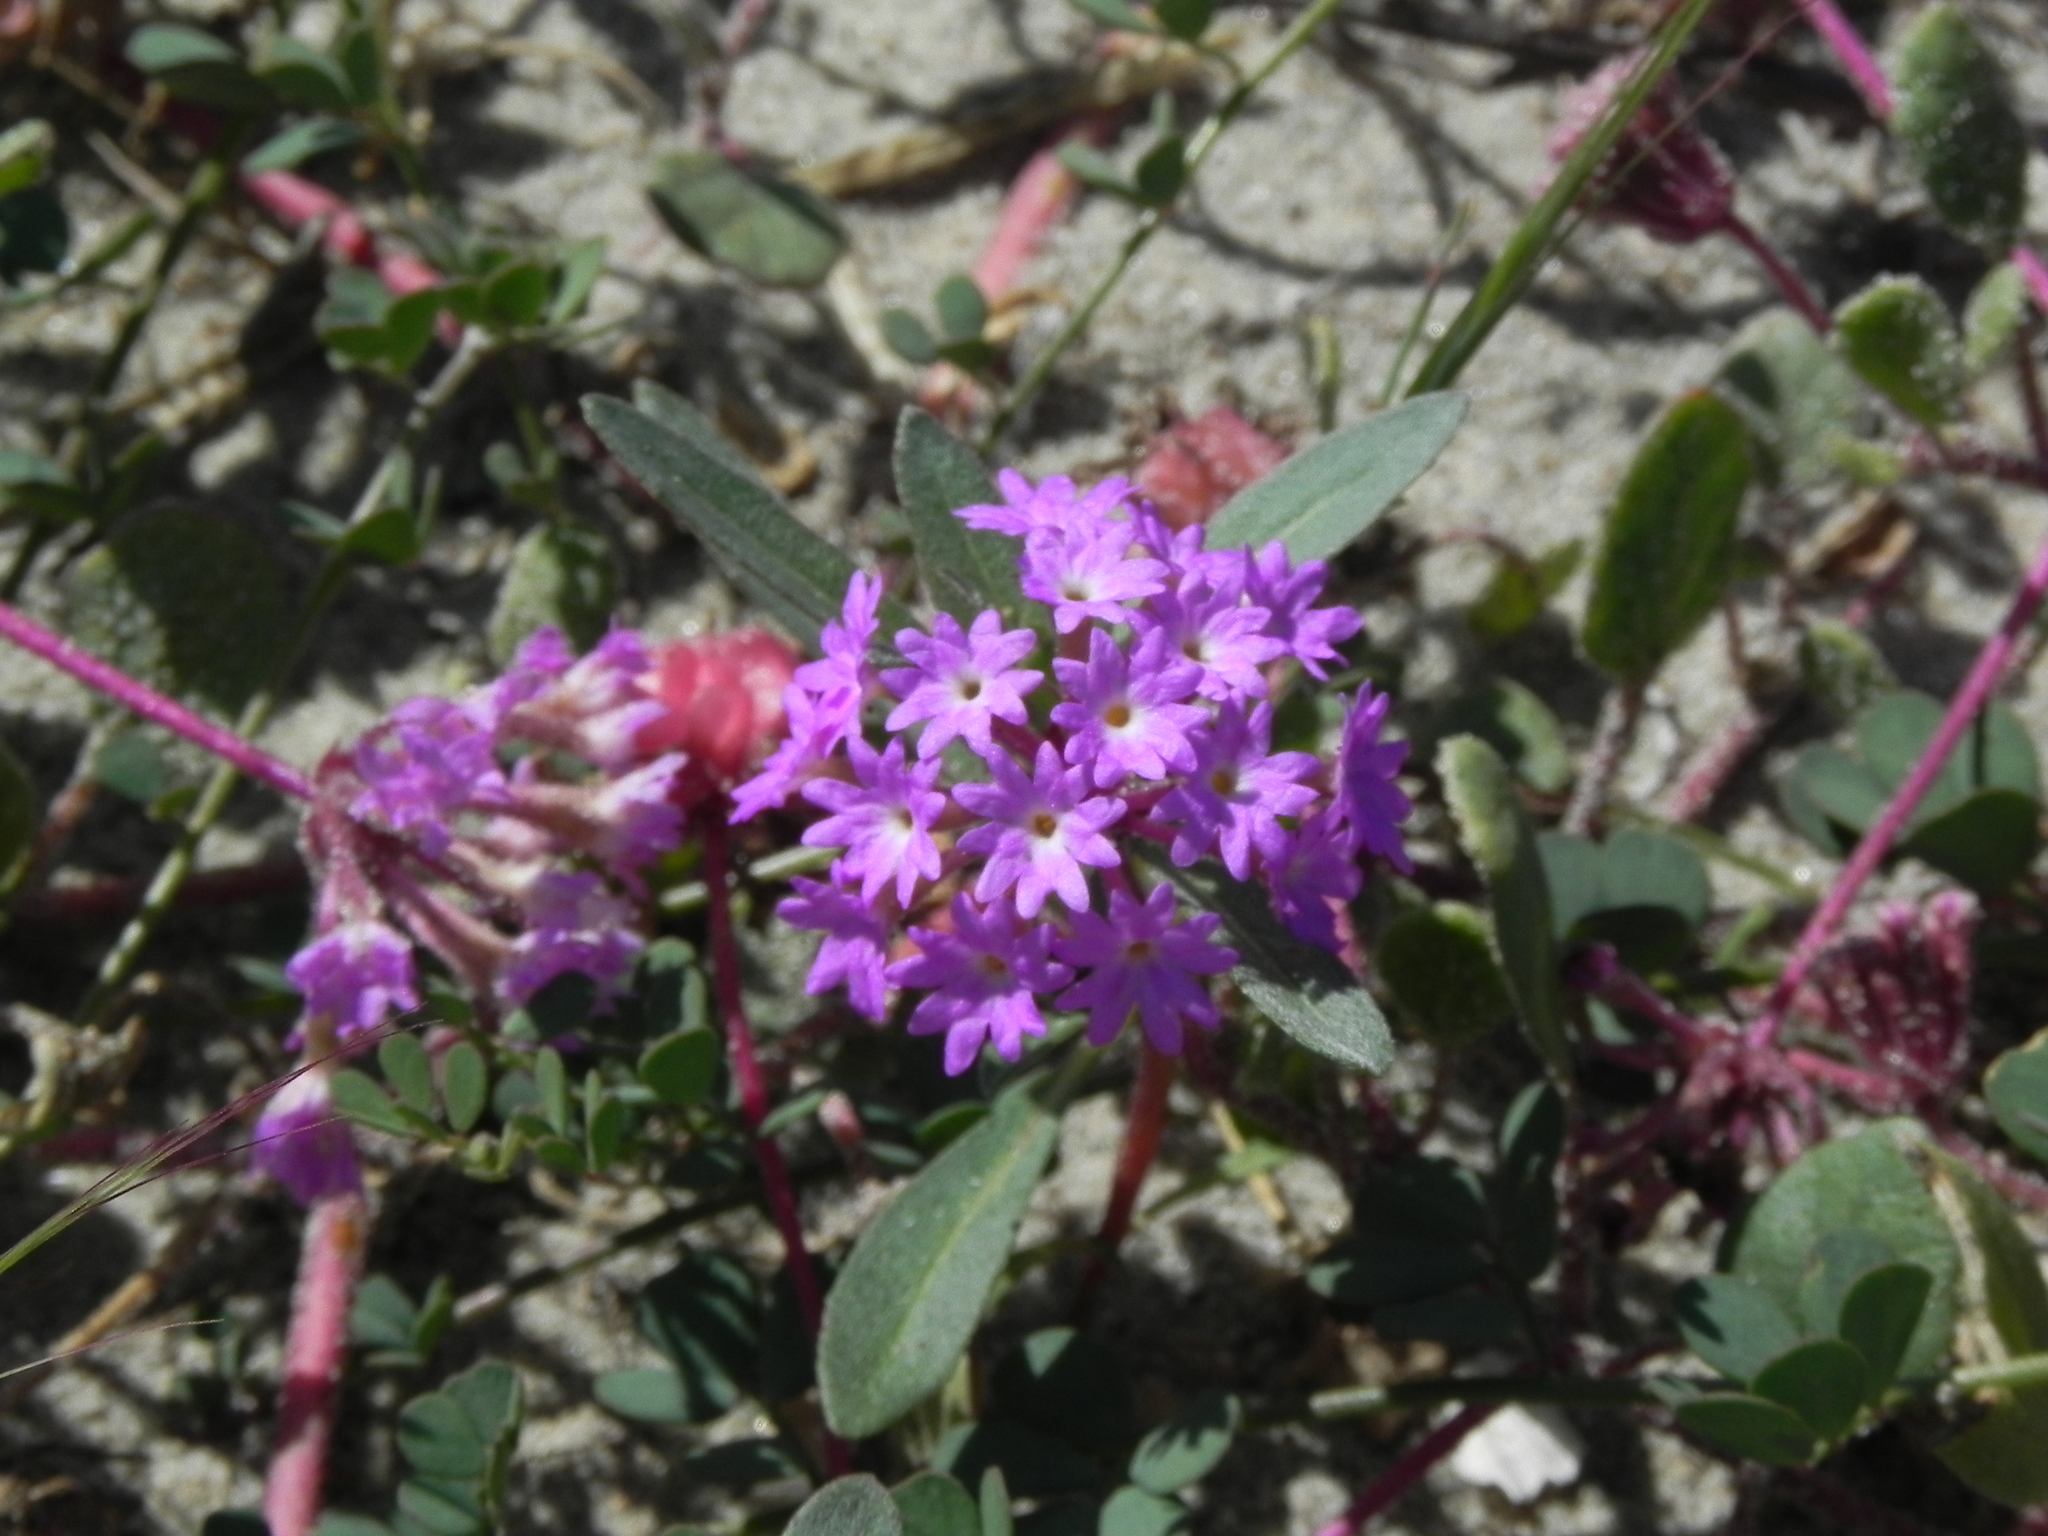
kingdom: Plantae
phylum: Tracheophyta
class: Magnoliopsida
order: Caryophyllales
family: Nyctaginaceae
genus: Abronia
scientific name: Abronia umbellata
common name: Sand-verbena
